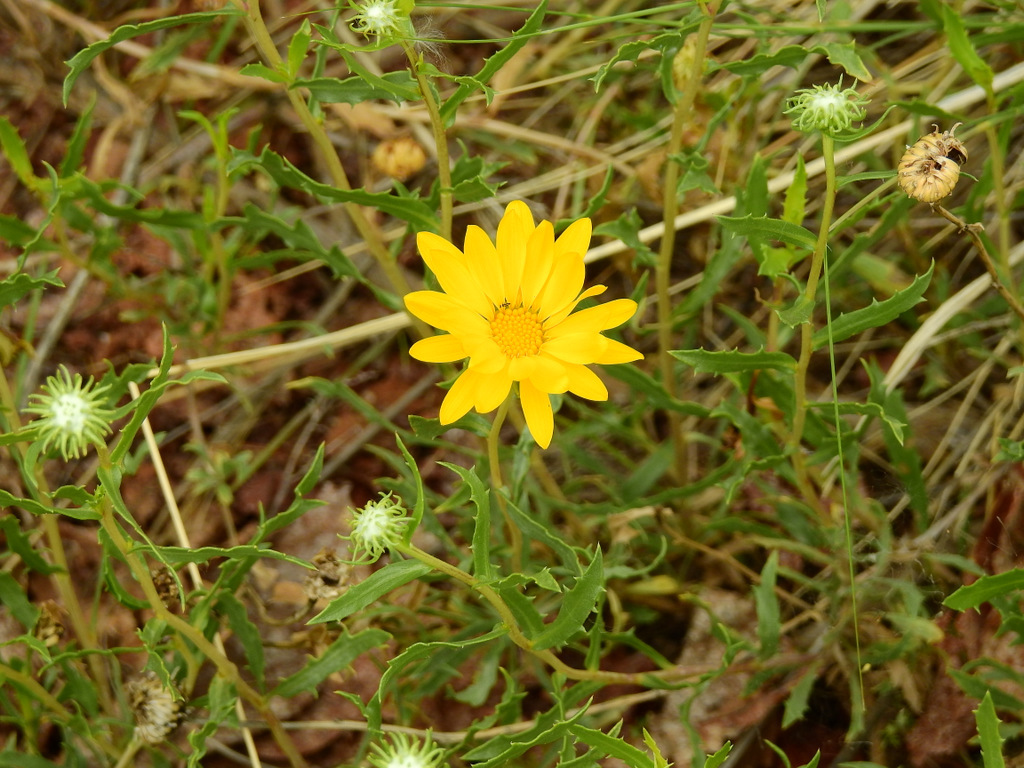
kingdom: Plantae
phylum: Tracheophyta
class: Magnoliopsida
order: Asterales
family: Asteraceae
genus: Grindelia
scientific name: Grindelia pulchella
